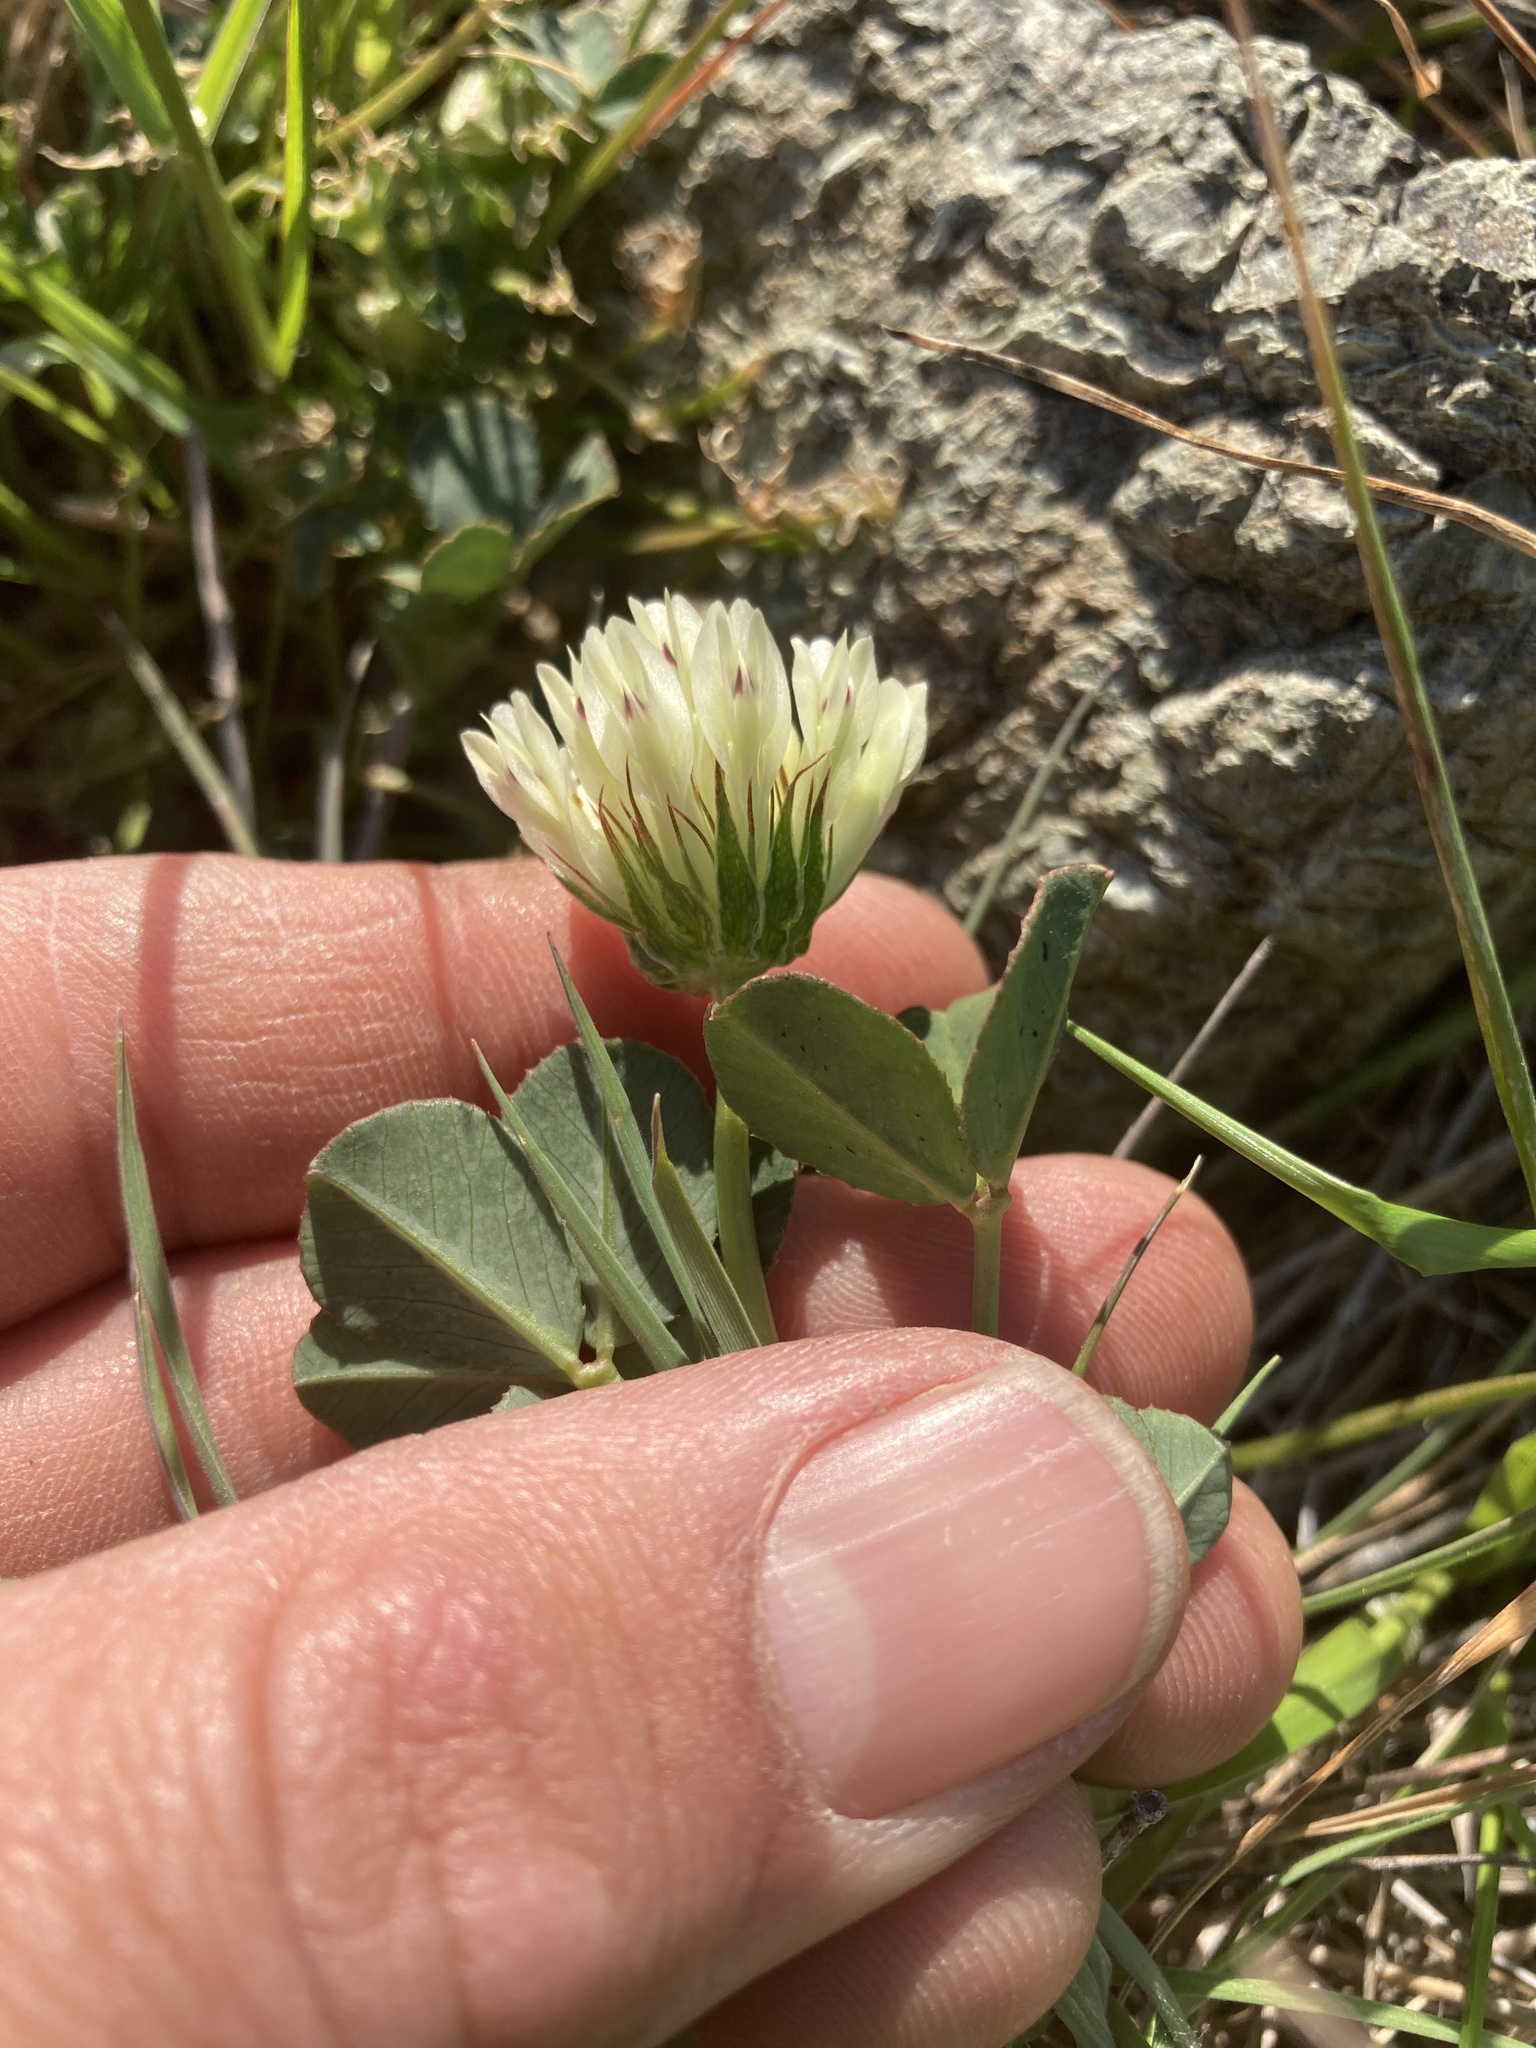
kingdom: Plantae
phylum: Tracheophyta
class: Magnoliopsida
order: Fabales
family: Fabaceae
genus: Trifolium
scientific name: Trifolium fucatum
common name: Puff clover
